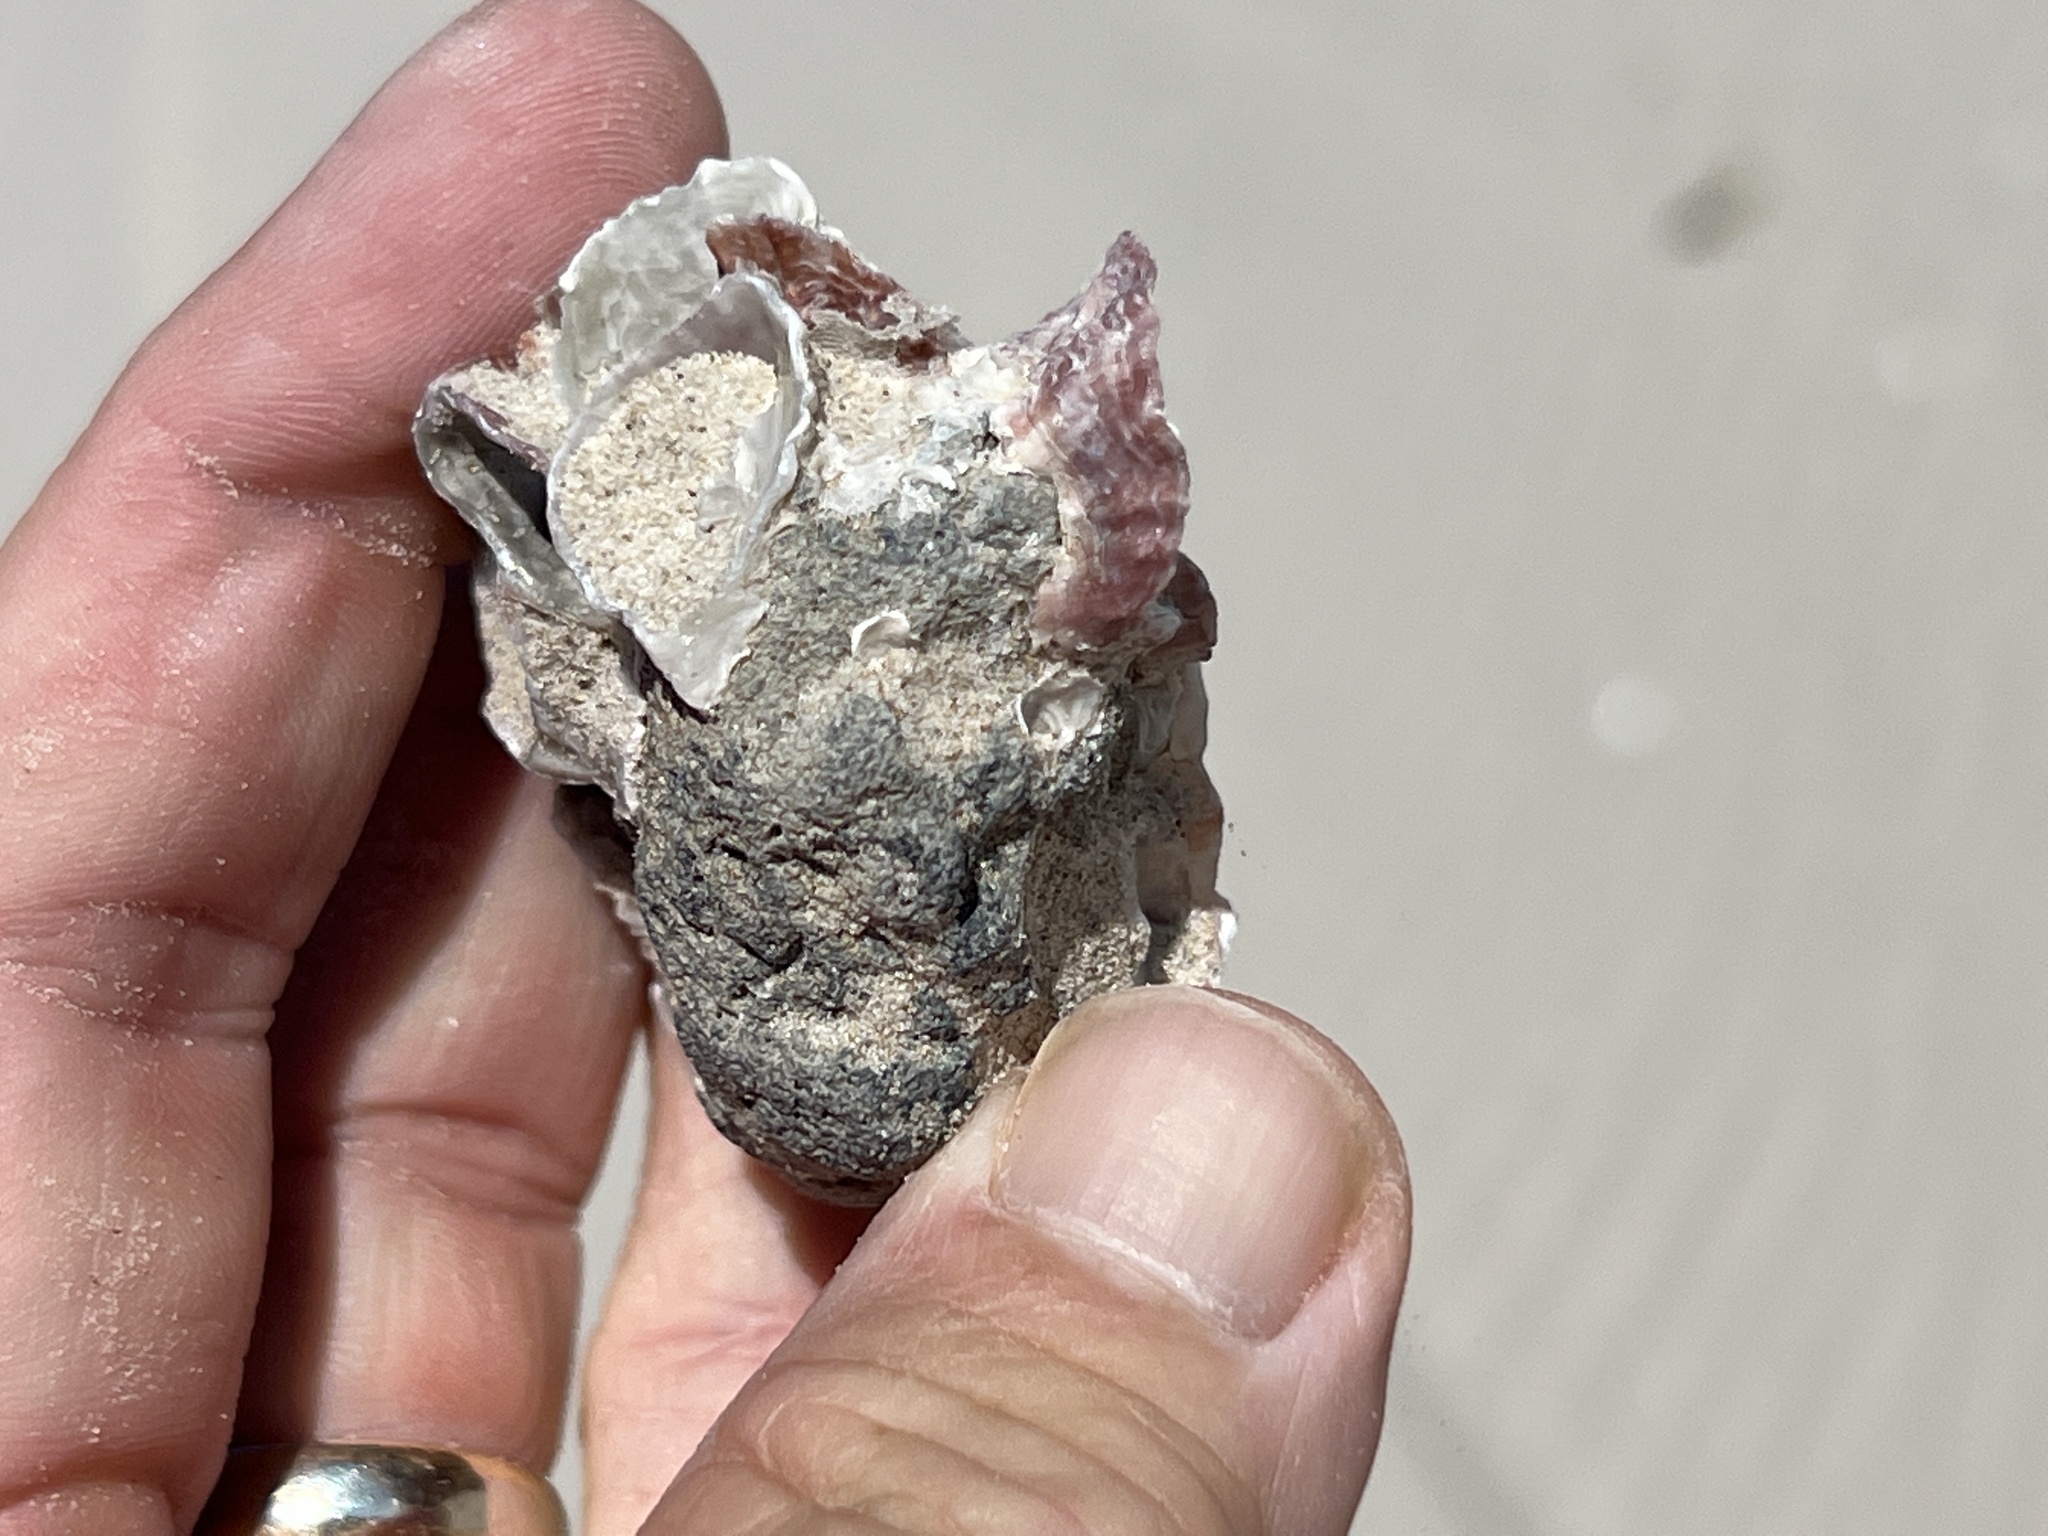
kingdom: Animalia
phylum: Arthropoda
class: Maxillopoda
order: Sessilia
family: Balanidae
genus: Megabalanus
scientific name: Megabalanus tintinnabulum
